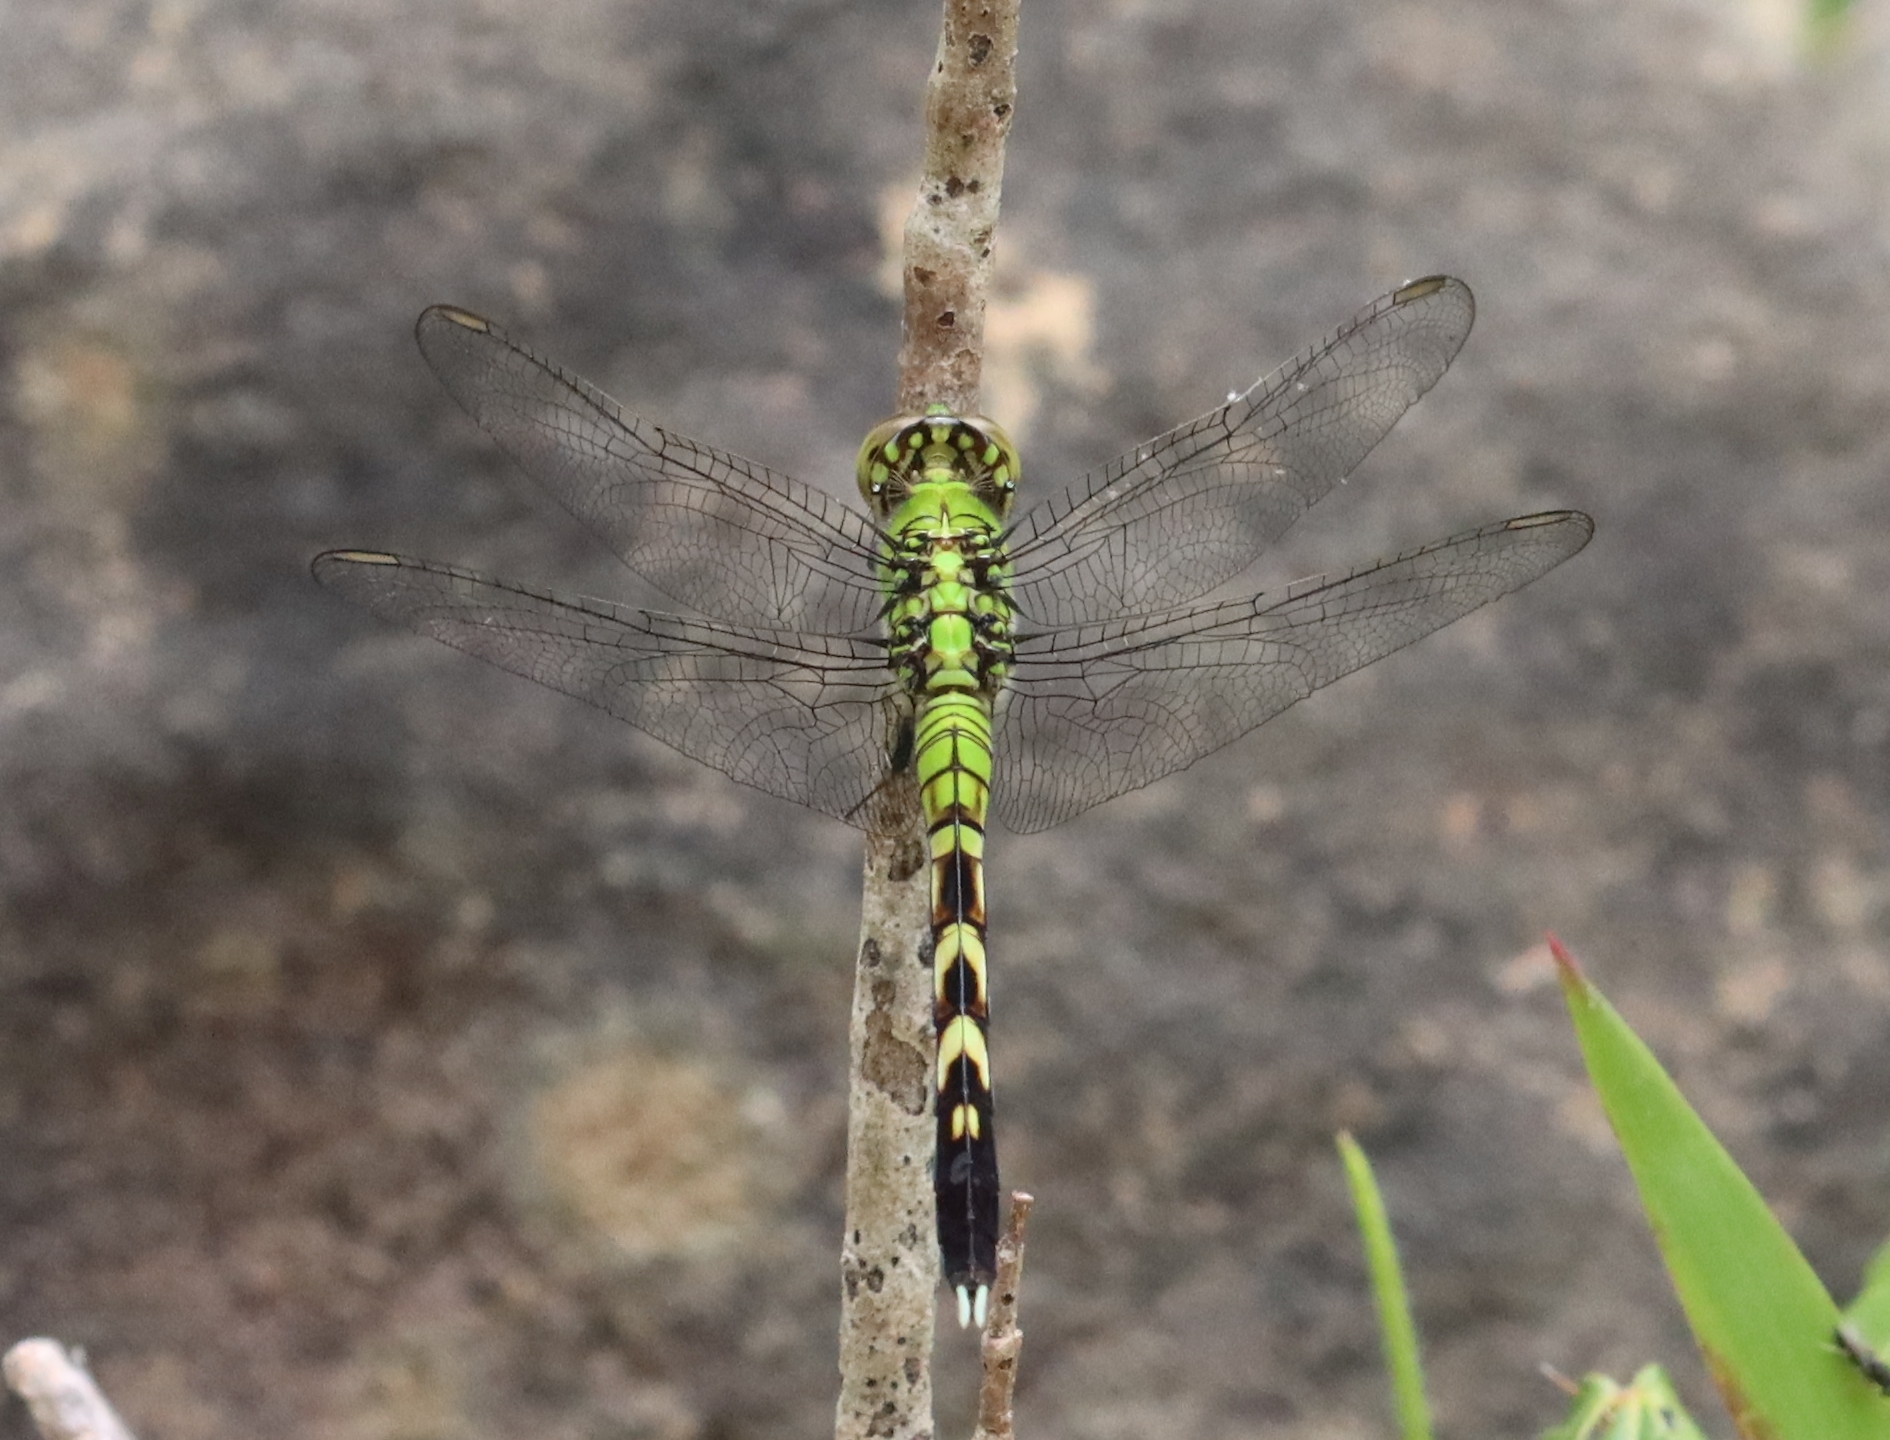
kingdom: Animalia
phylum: Arthropoda
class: Insecta
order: Odonata
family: Libellulidae
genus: Erythemis
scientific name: Erythemis simplicicollis
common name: Eastern pondhawk
